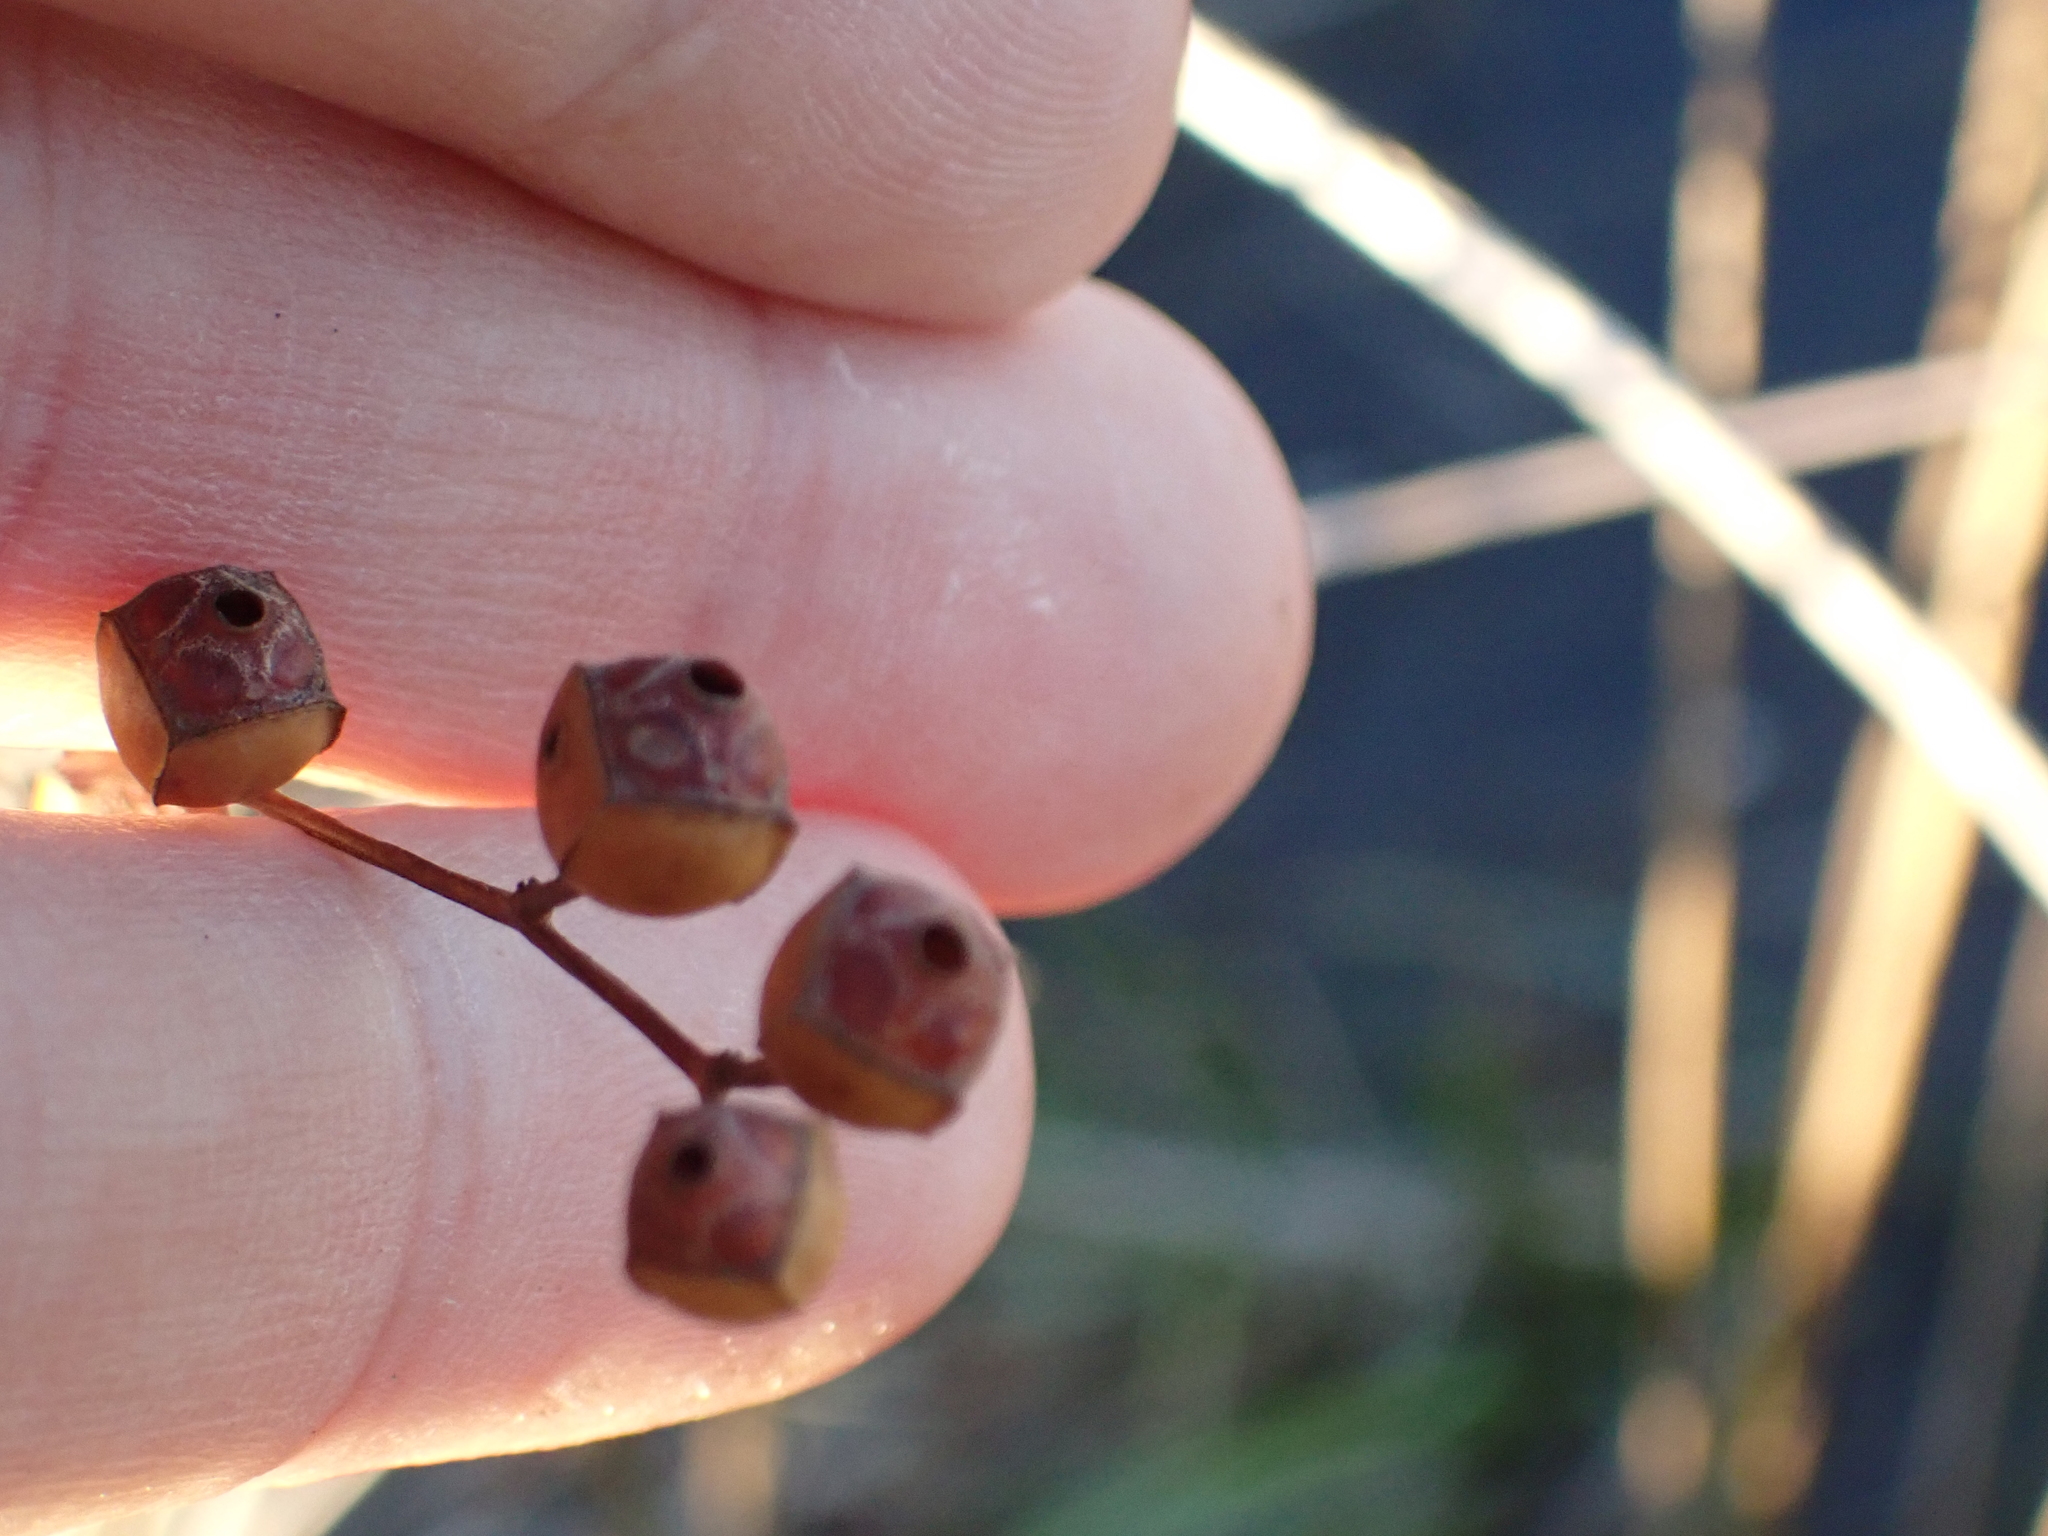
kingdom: Plantae
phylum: Tracheophyta
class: Magnoliopsida
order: Myrtales
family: Onagraceae
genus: Ludwigia
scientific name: Ludwigia alternifolia
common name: Rattlebox
